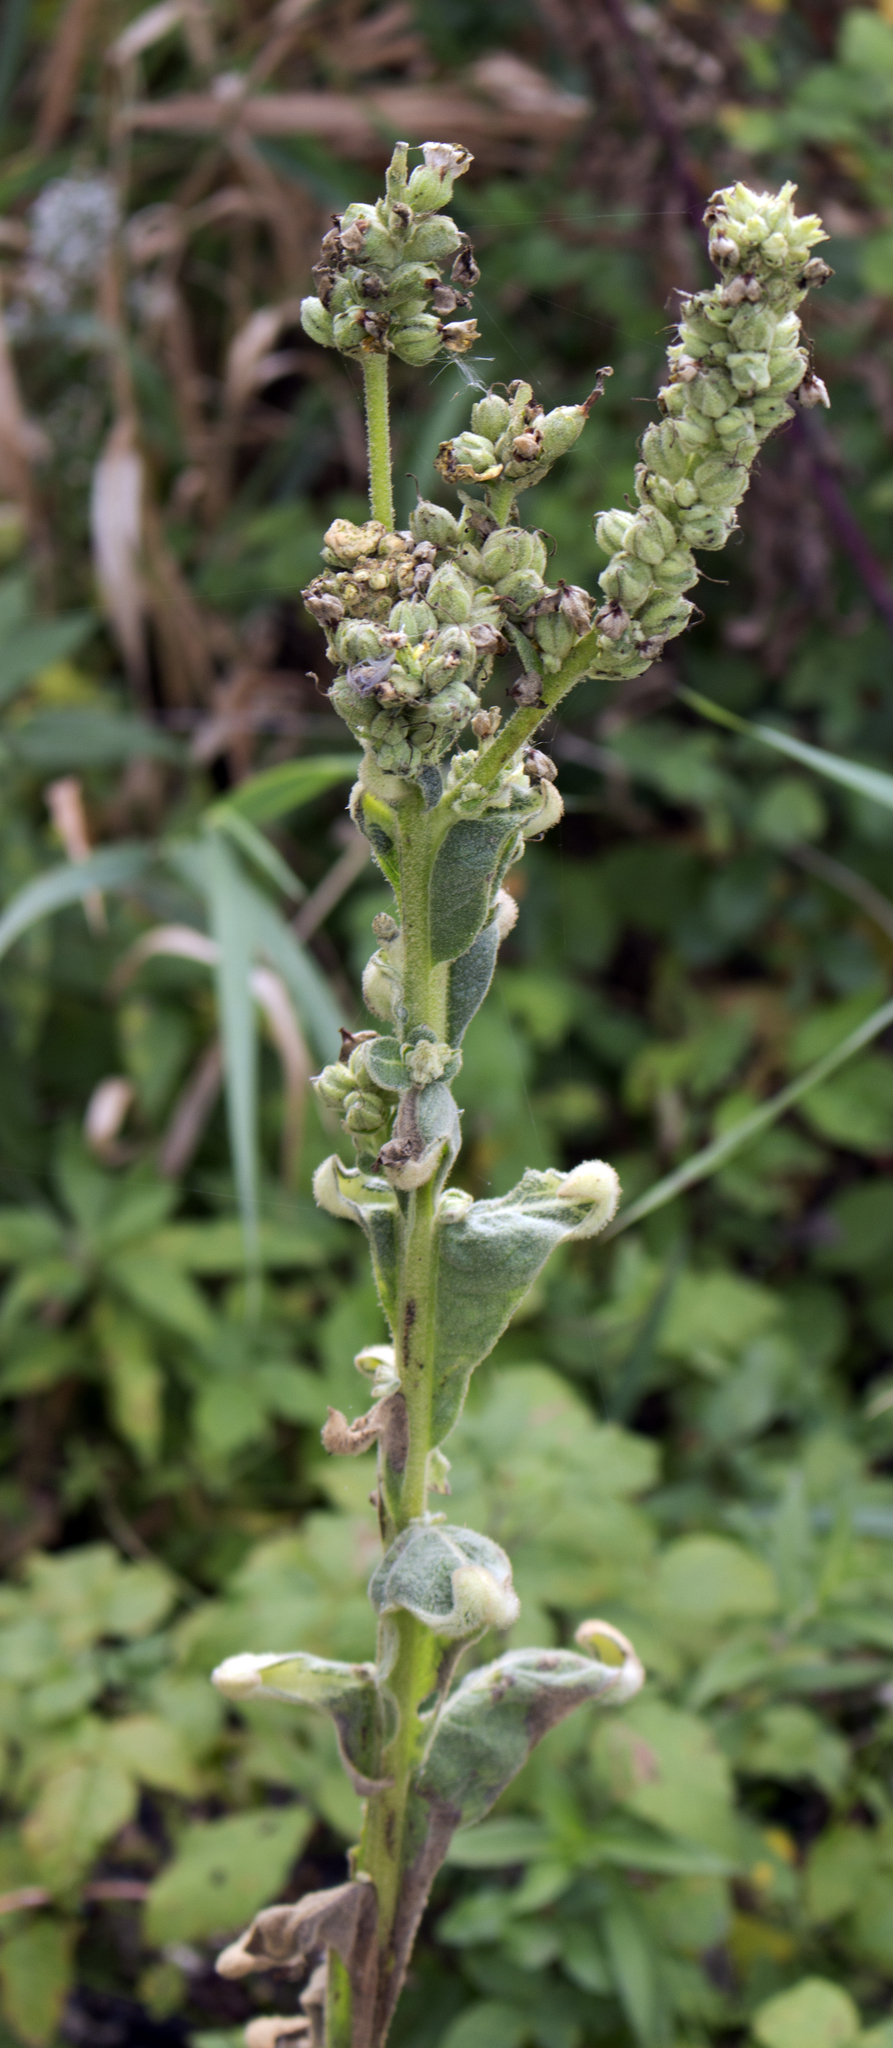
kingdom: Plantae
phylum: Tracheophyta
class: Magnoliopsida
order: Lamiales
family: Scrophulariaceae
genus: Verbascum
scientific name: Verbascum thapsus
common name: Common mullein
